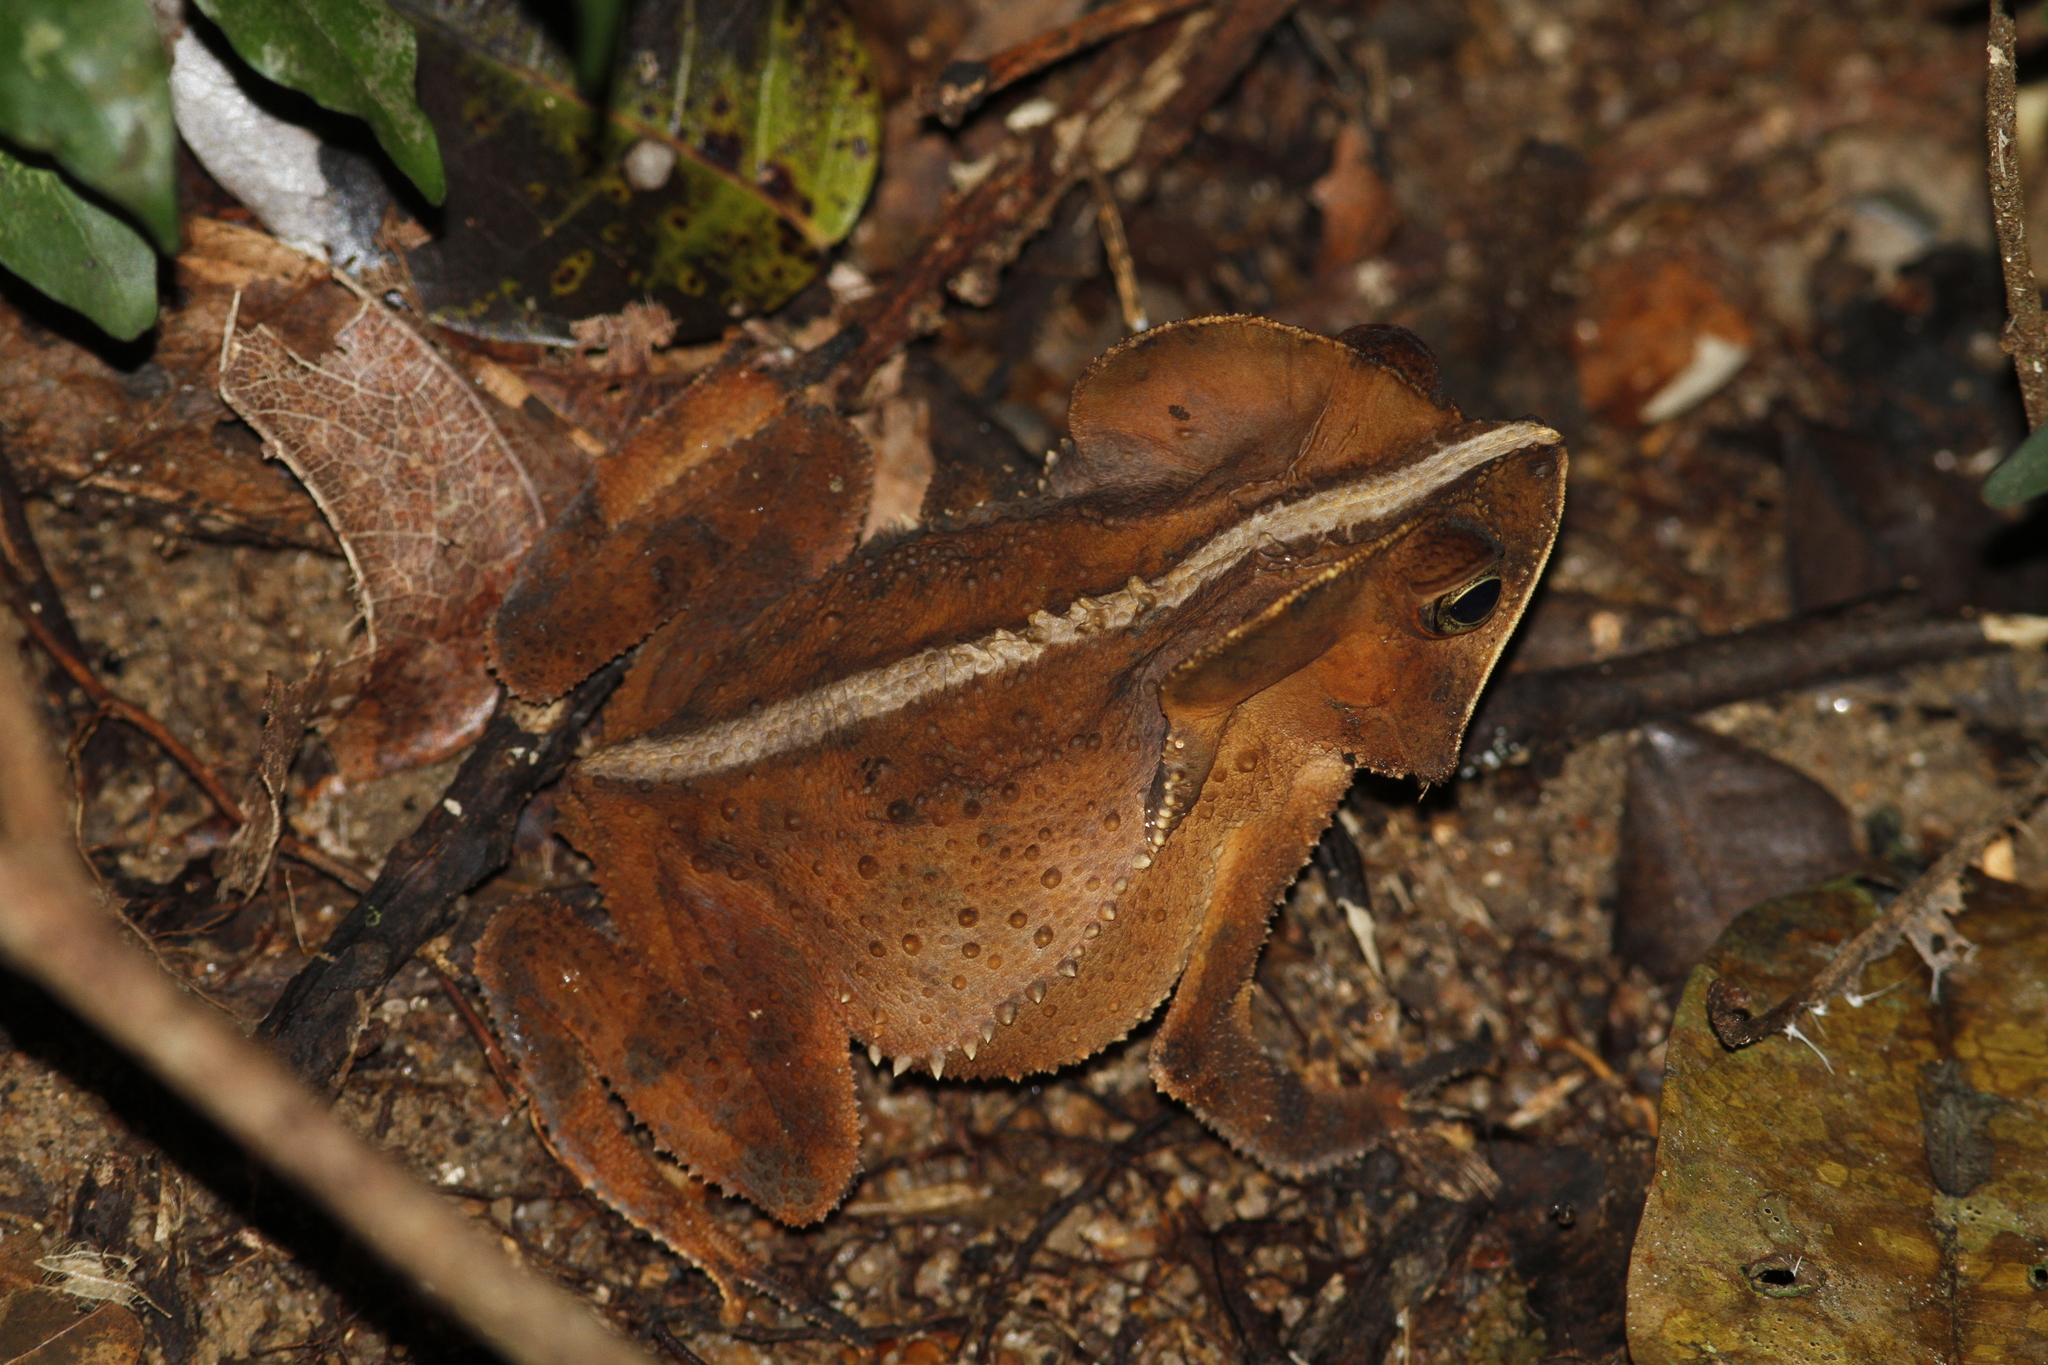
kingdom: Animalia
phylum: Chordata
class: Amphibia
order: Anura
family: Bufonidae
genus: Rhinella
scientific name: Rhinella margaritifera
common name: Mitred toad
